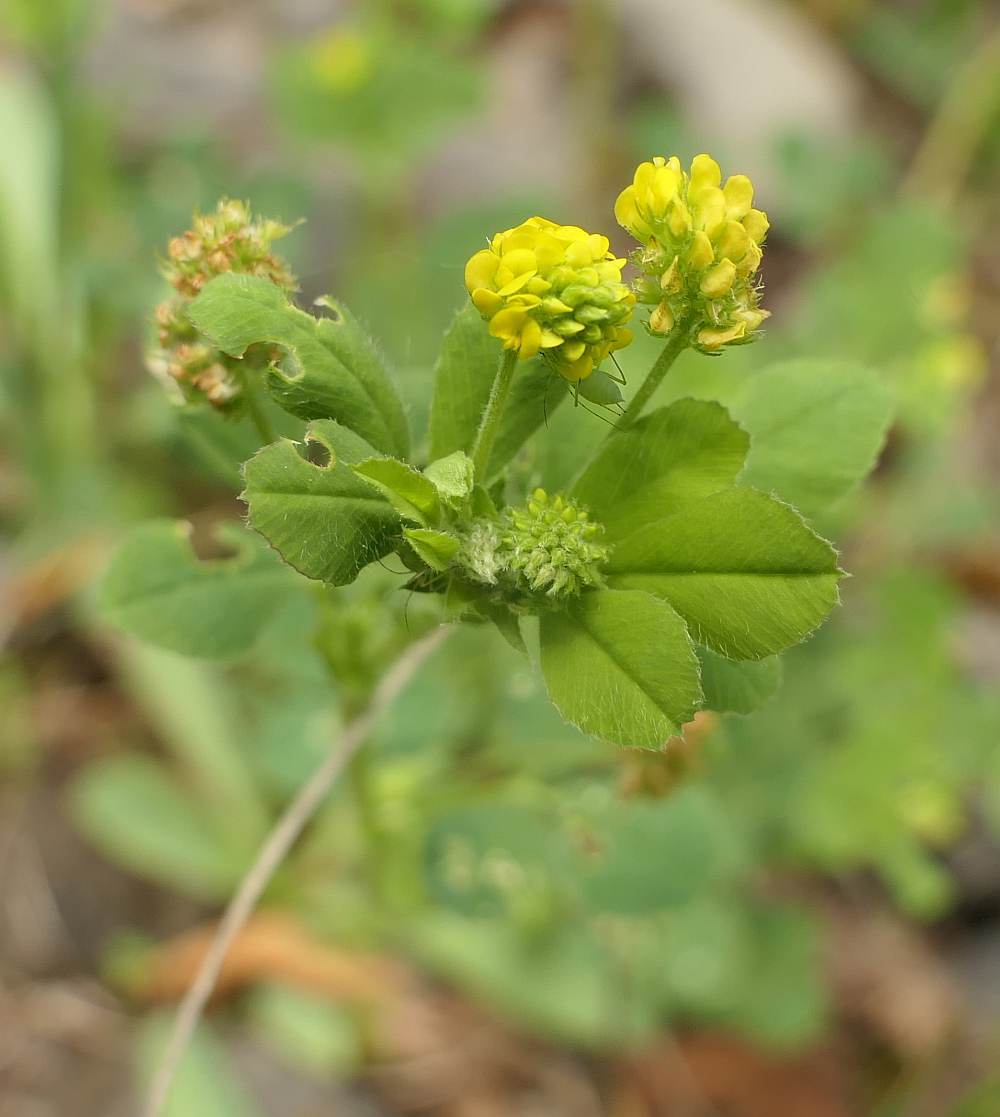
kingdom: Plantae
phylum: Tracheophyta
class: Magnoliopsida
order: Fabales
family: Fabaceae
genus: Medicago
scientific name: Medicago lupulina
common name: Black medick
